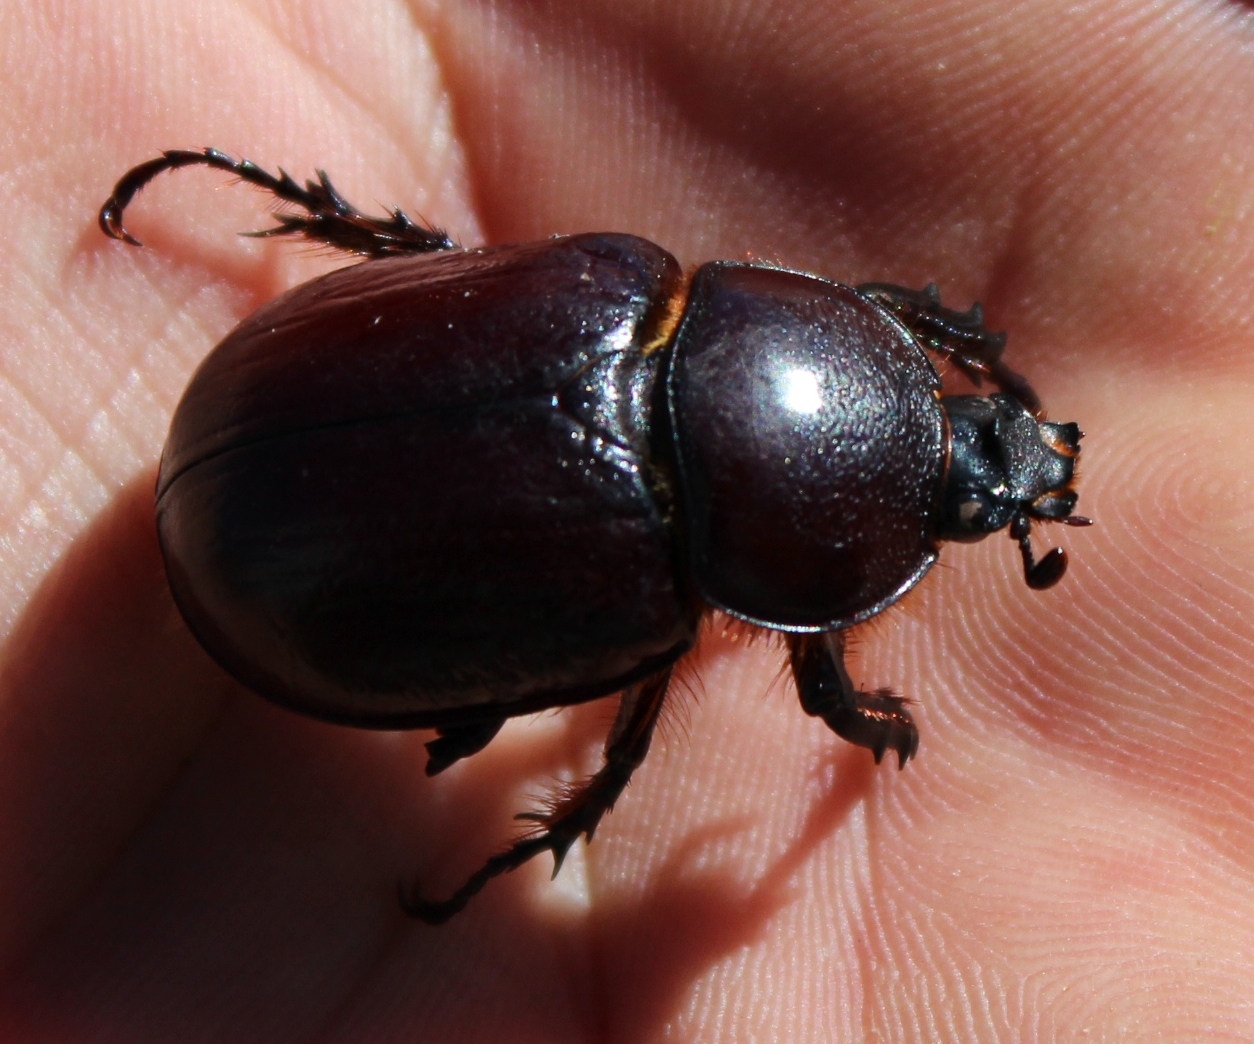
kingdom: Animalia
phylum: Arthropoda
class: Insecta
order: Coleoptera
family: Scarabaeidae
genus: Cyphonistes
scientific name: Cyphonistes vallatus
